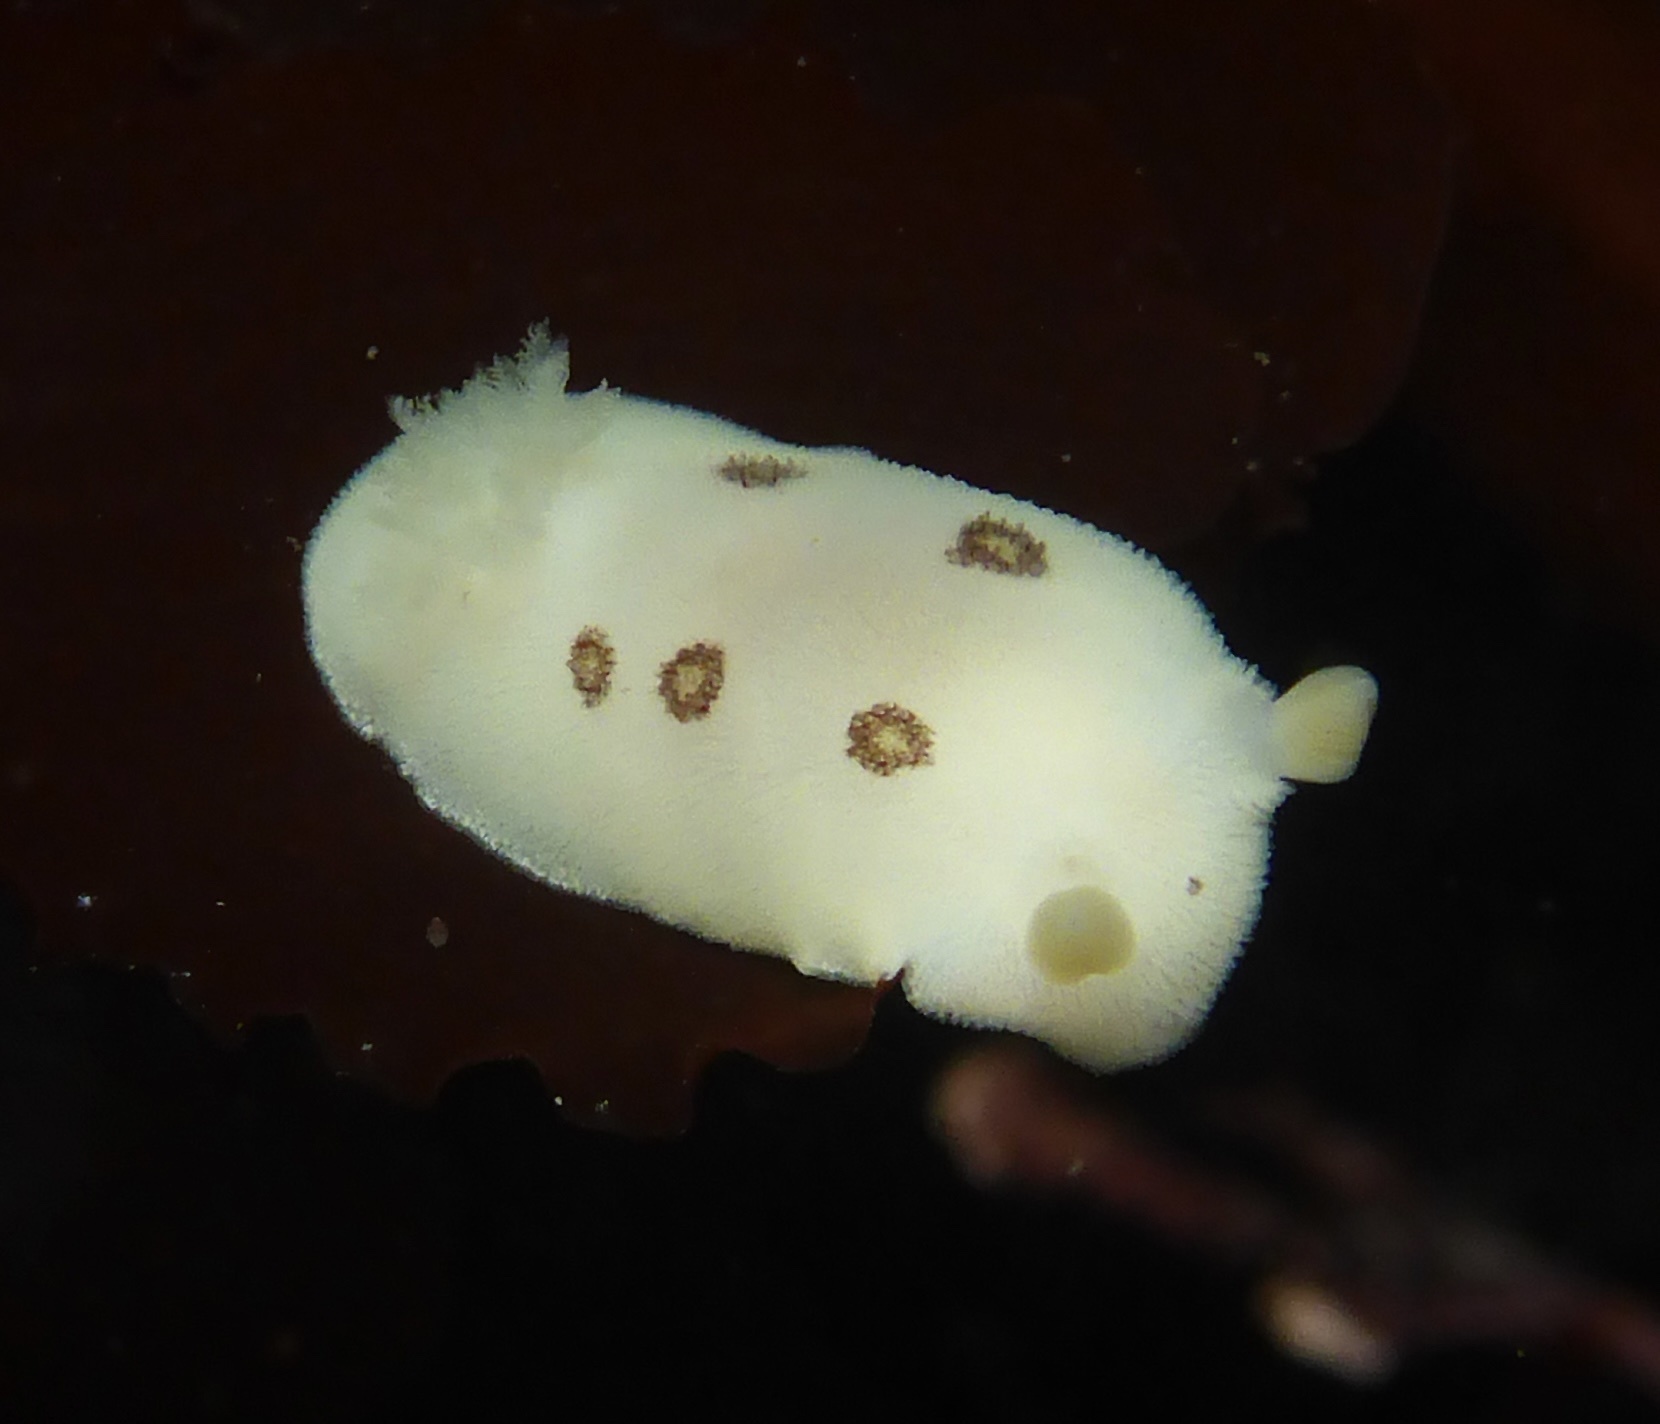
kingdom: Animalia
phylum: Mollusca
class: Gastropoda
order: Nudibranchia
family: Discodorididae
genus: Diaulula
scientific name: Diaulula sandiegensis
